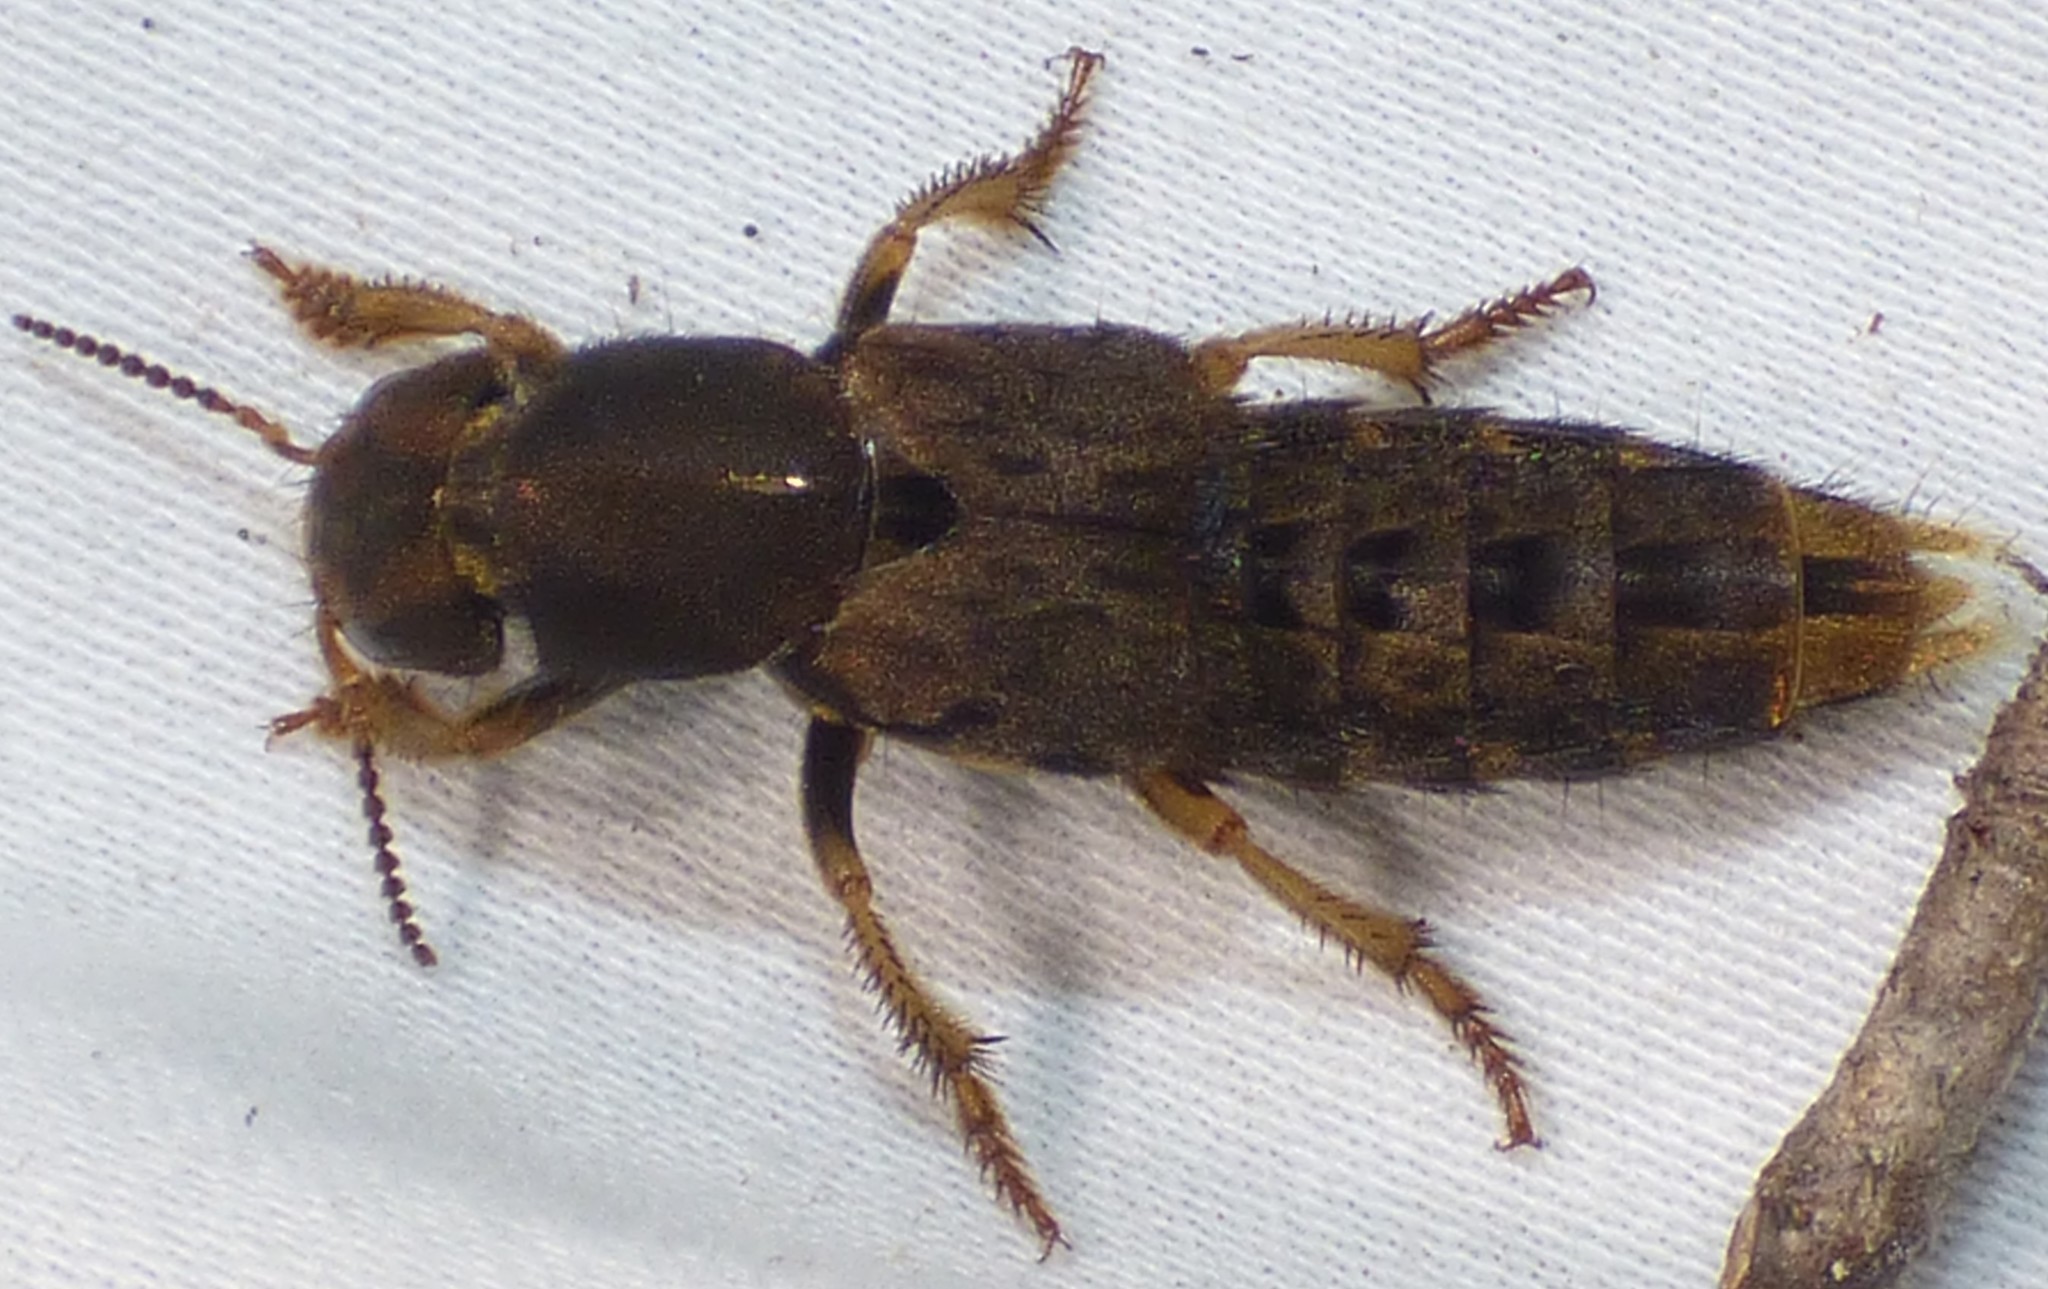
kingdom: Animalia
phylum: Arthropoda
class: Insecta
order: Coleoptera
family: Staphylinidae
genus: Platydracus
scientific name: Platydracus maculosus
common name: Brown rove beetle
